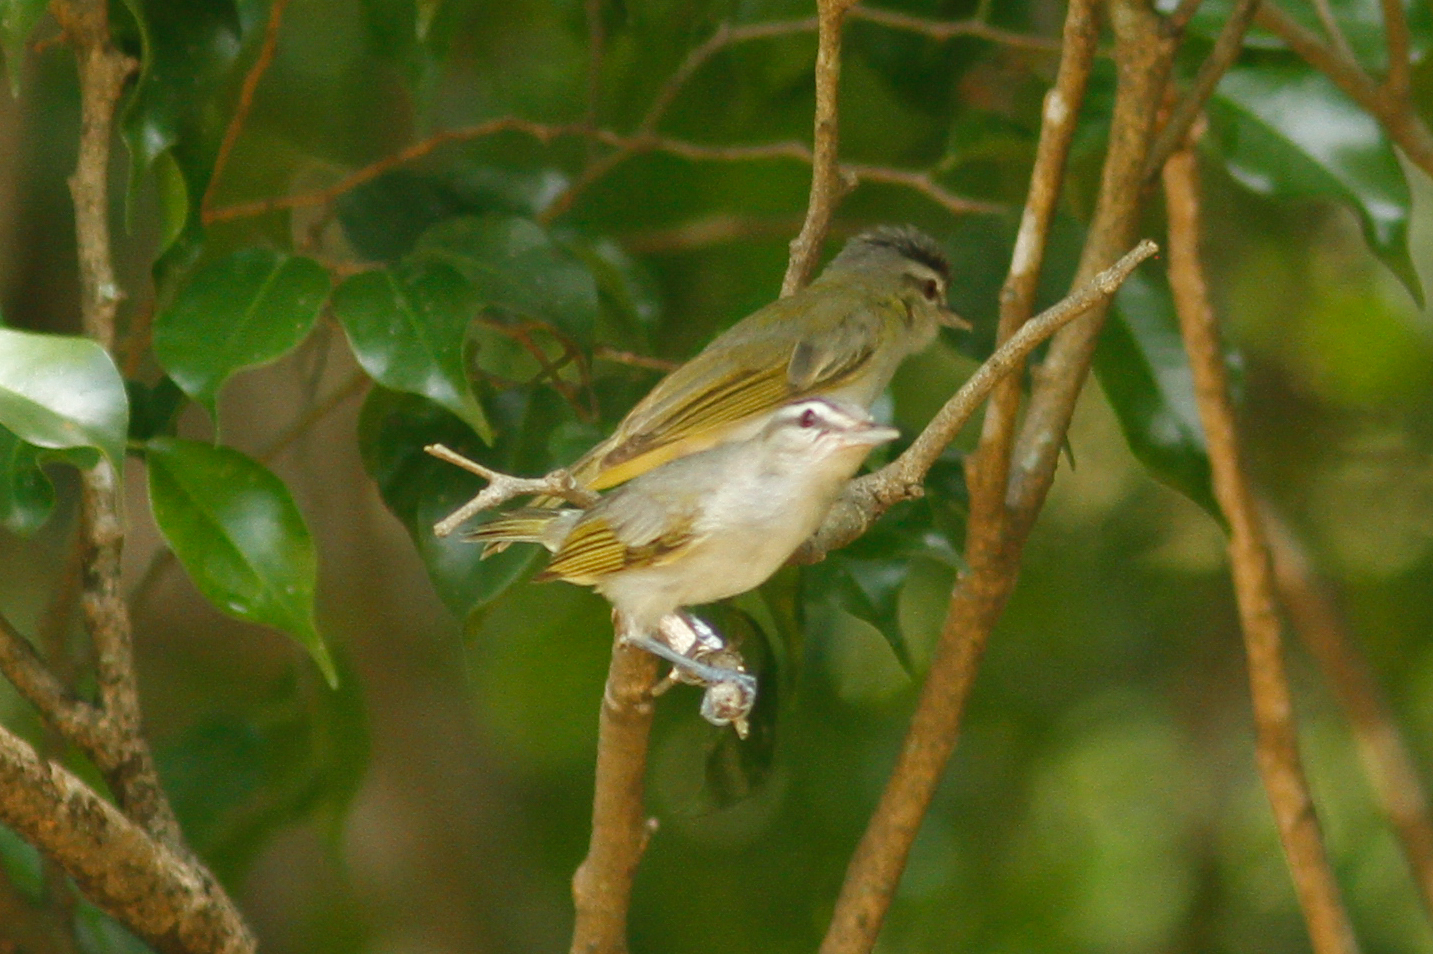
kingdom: Animalia
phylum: Chordata
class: Aves
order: Passeriformes
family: Vireonidae
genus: Vireo
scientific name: Vireo olivaceus
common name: Red-eyed vireo
